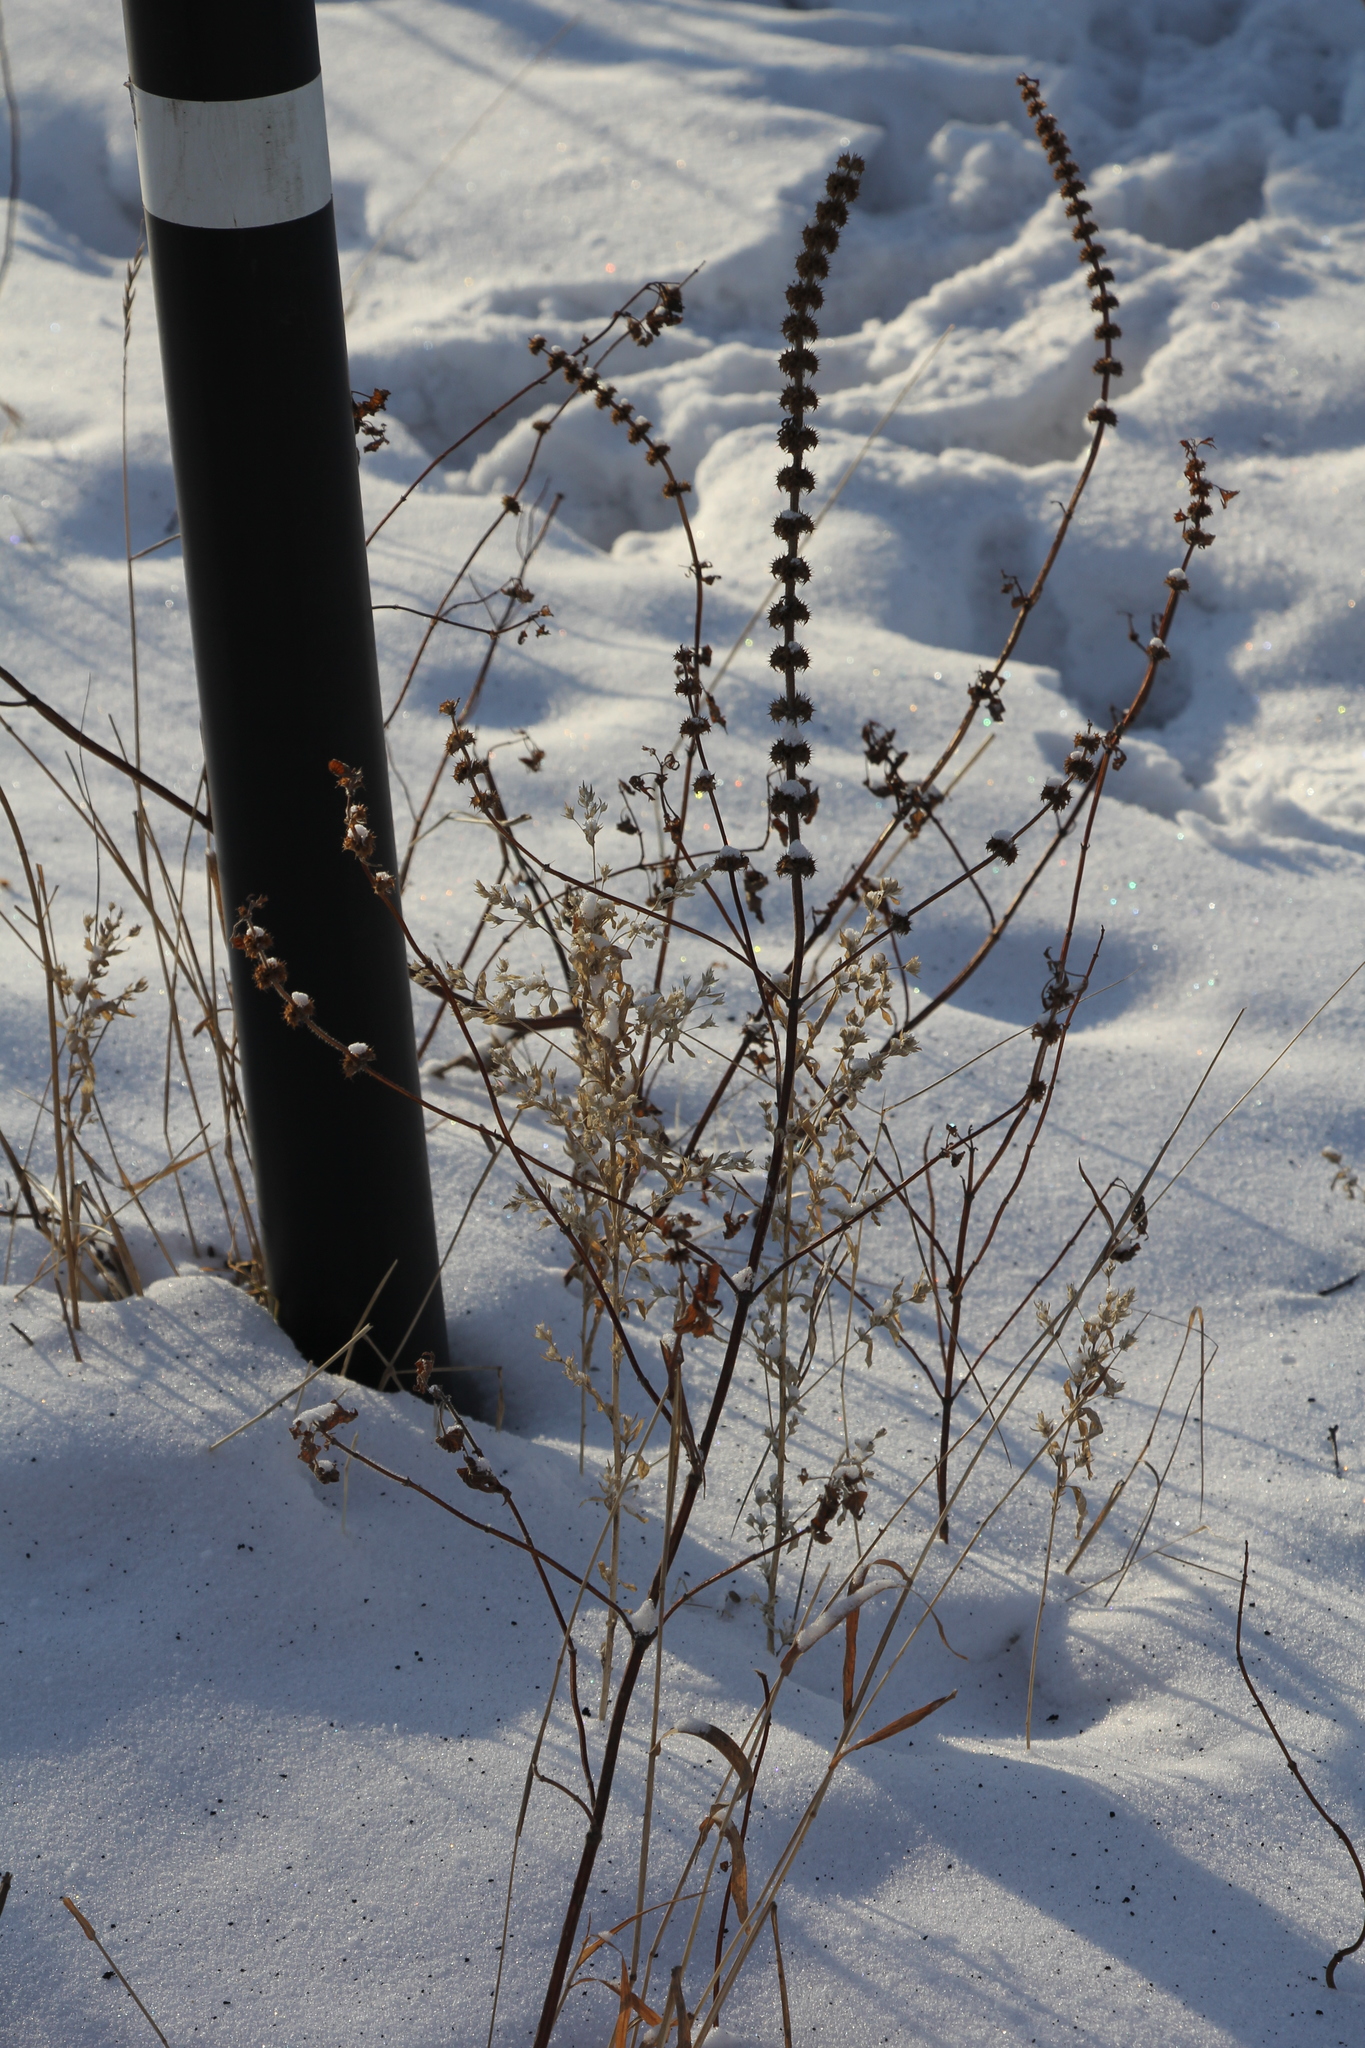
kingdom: Plantae
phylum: Tracheophyta
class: Magnoliopsida
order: Lamiales
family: Lamiaceae
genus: Leonurus
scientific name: Leonurus quinquelobatus
